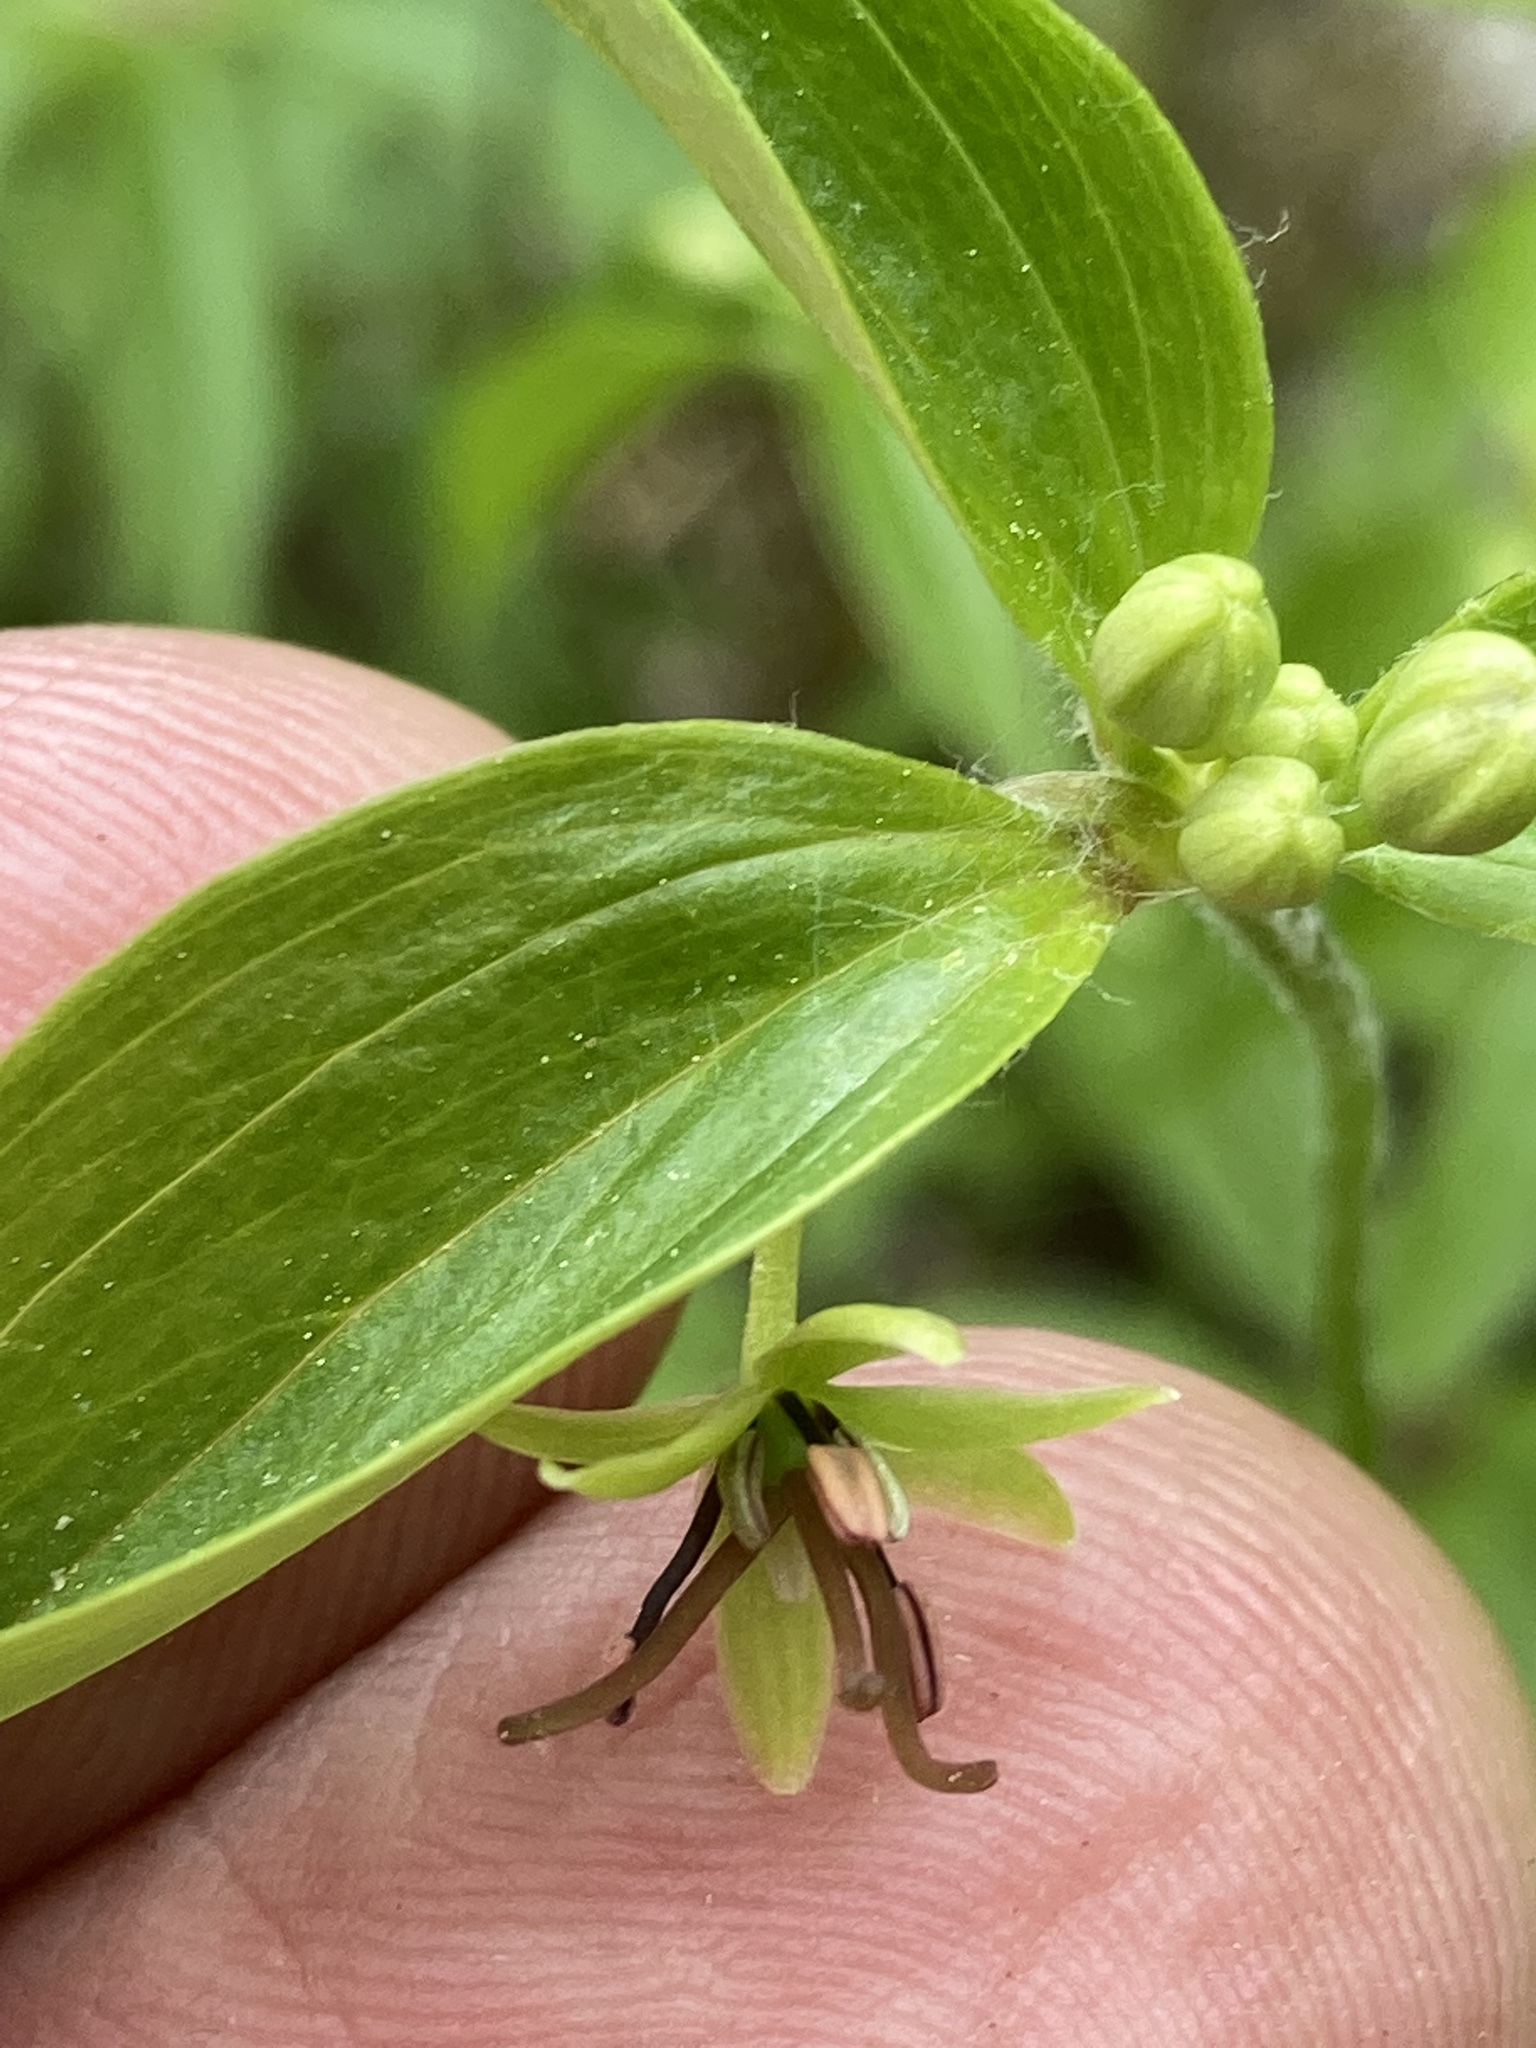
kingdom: Plantae
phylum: Tracheophyta
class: Liliopsida
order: Liliales
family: Liliaceae
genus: Medeola
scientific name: Medeola virginiana
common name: Indian cucumber-root
